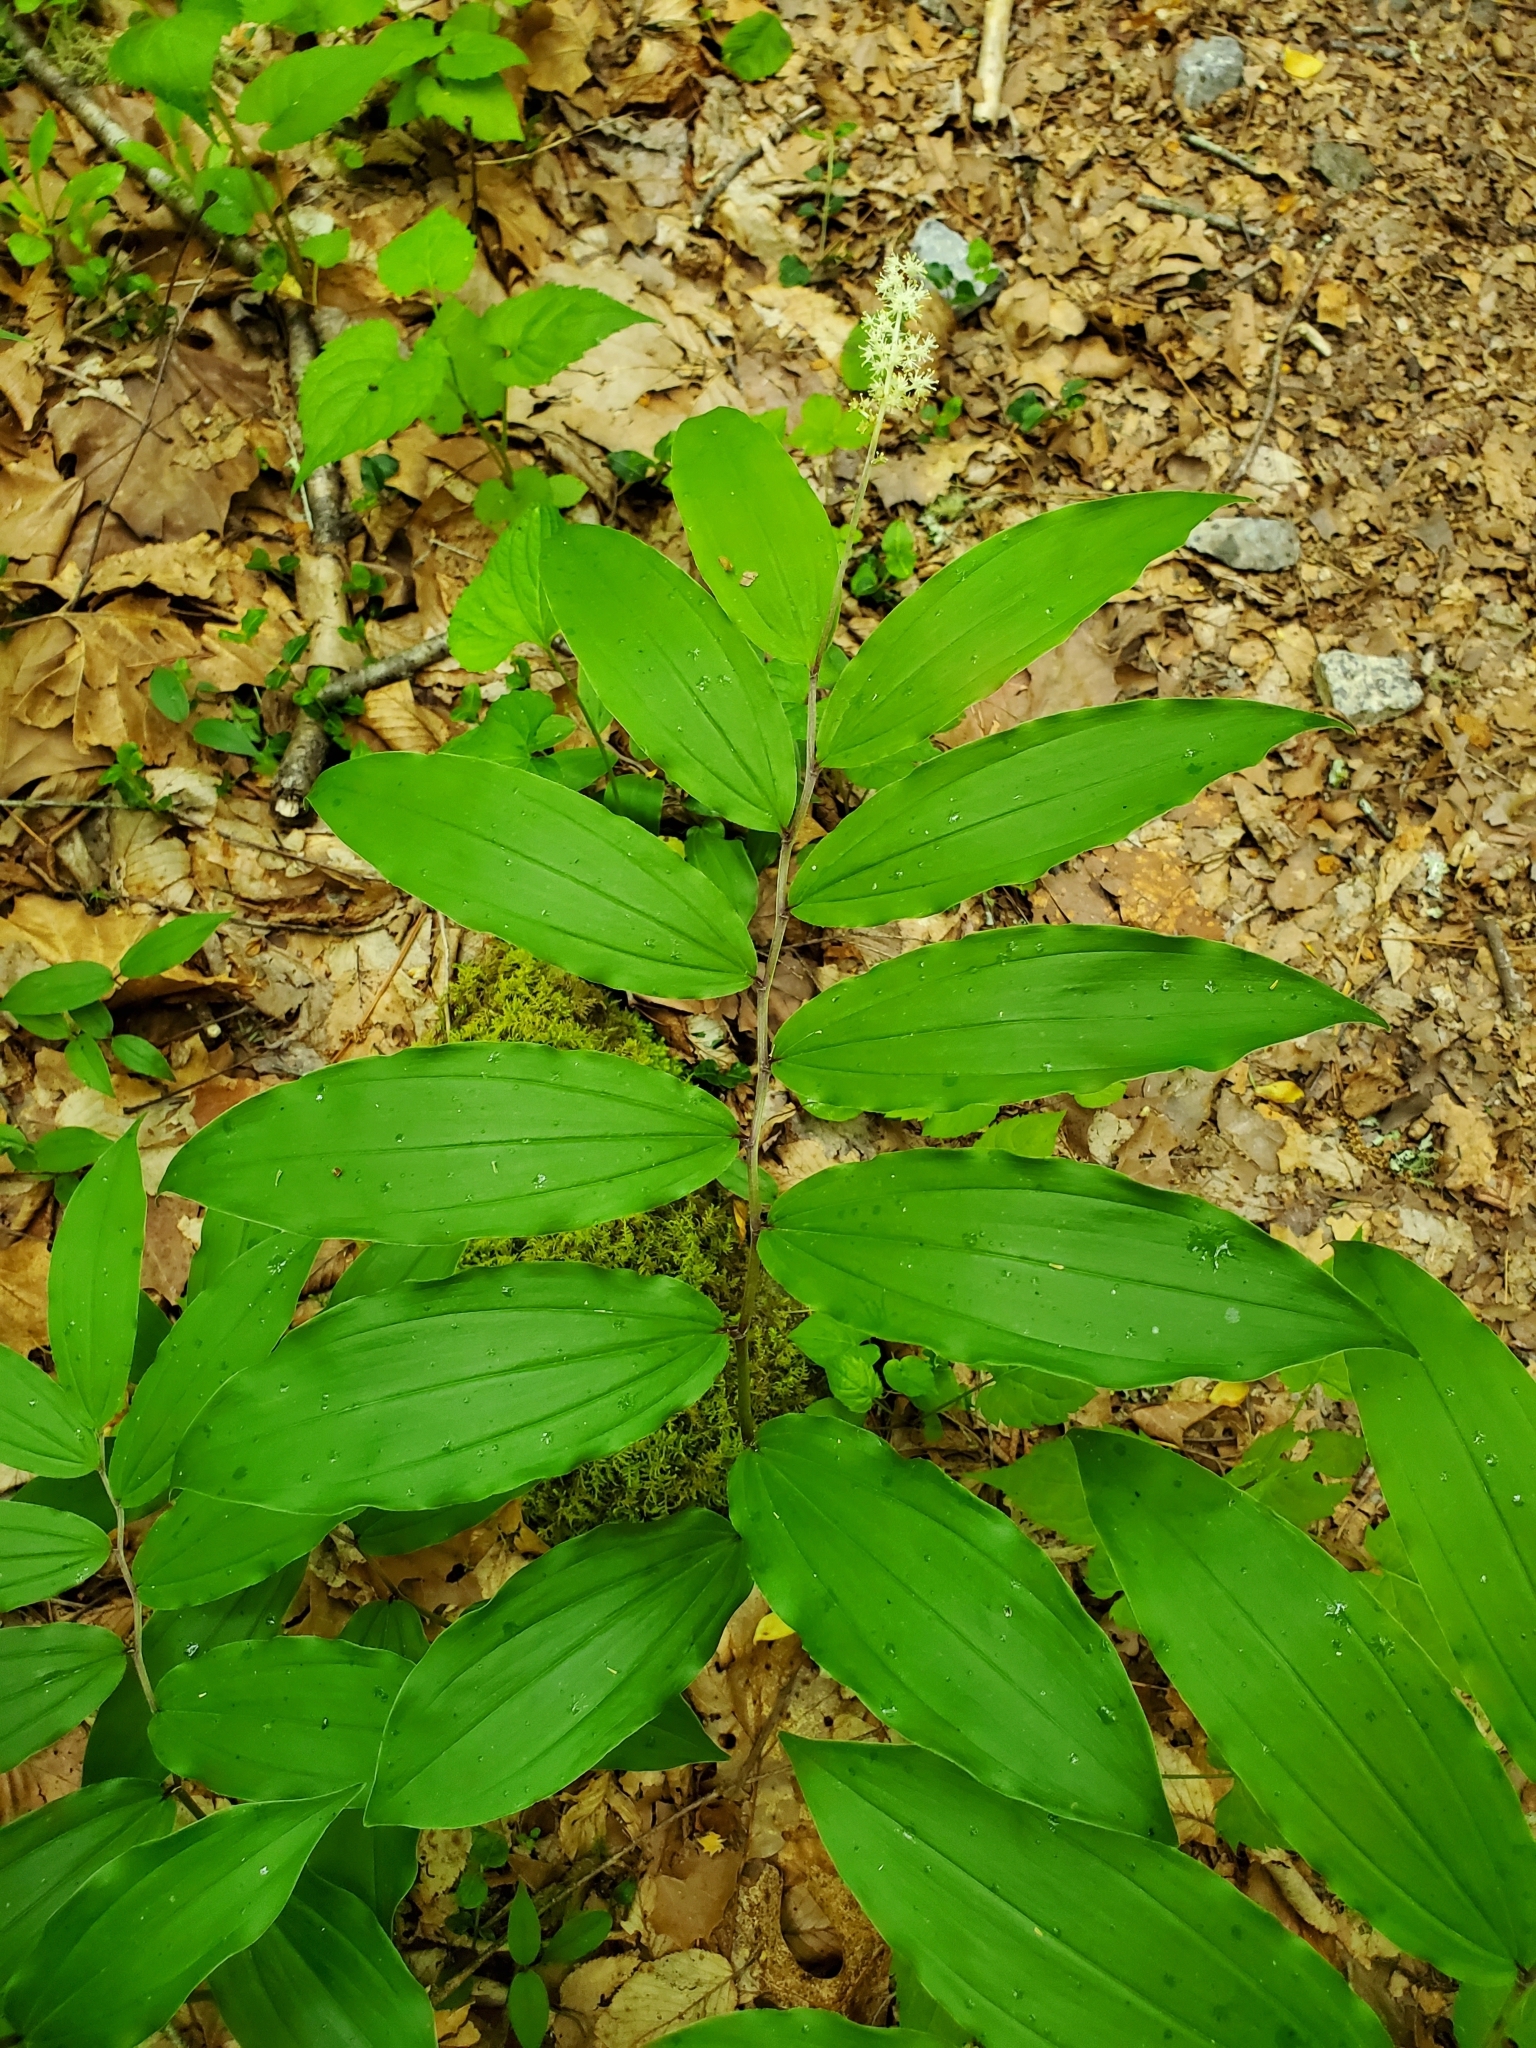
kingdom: Plantae
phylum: Tracheophyta
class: Liliopsida
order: Asparagales
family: Asparagaceae
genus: Maianthemum
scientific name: Maianthemum racemosum
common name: False spikenard
